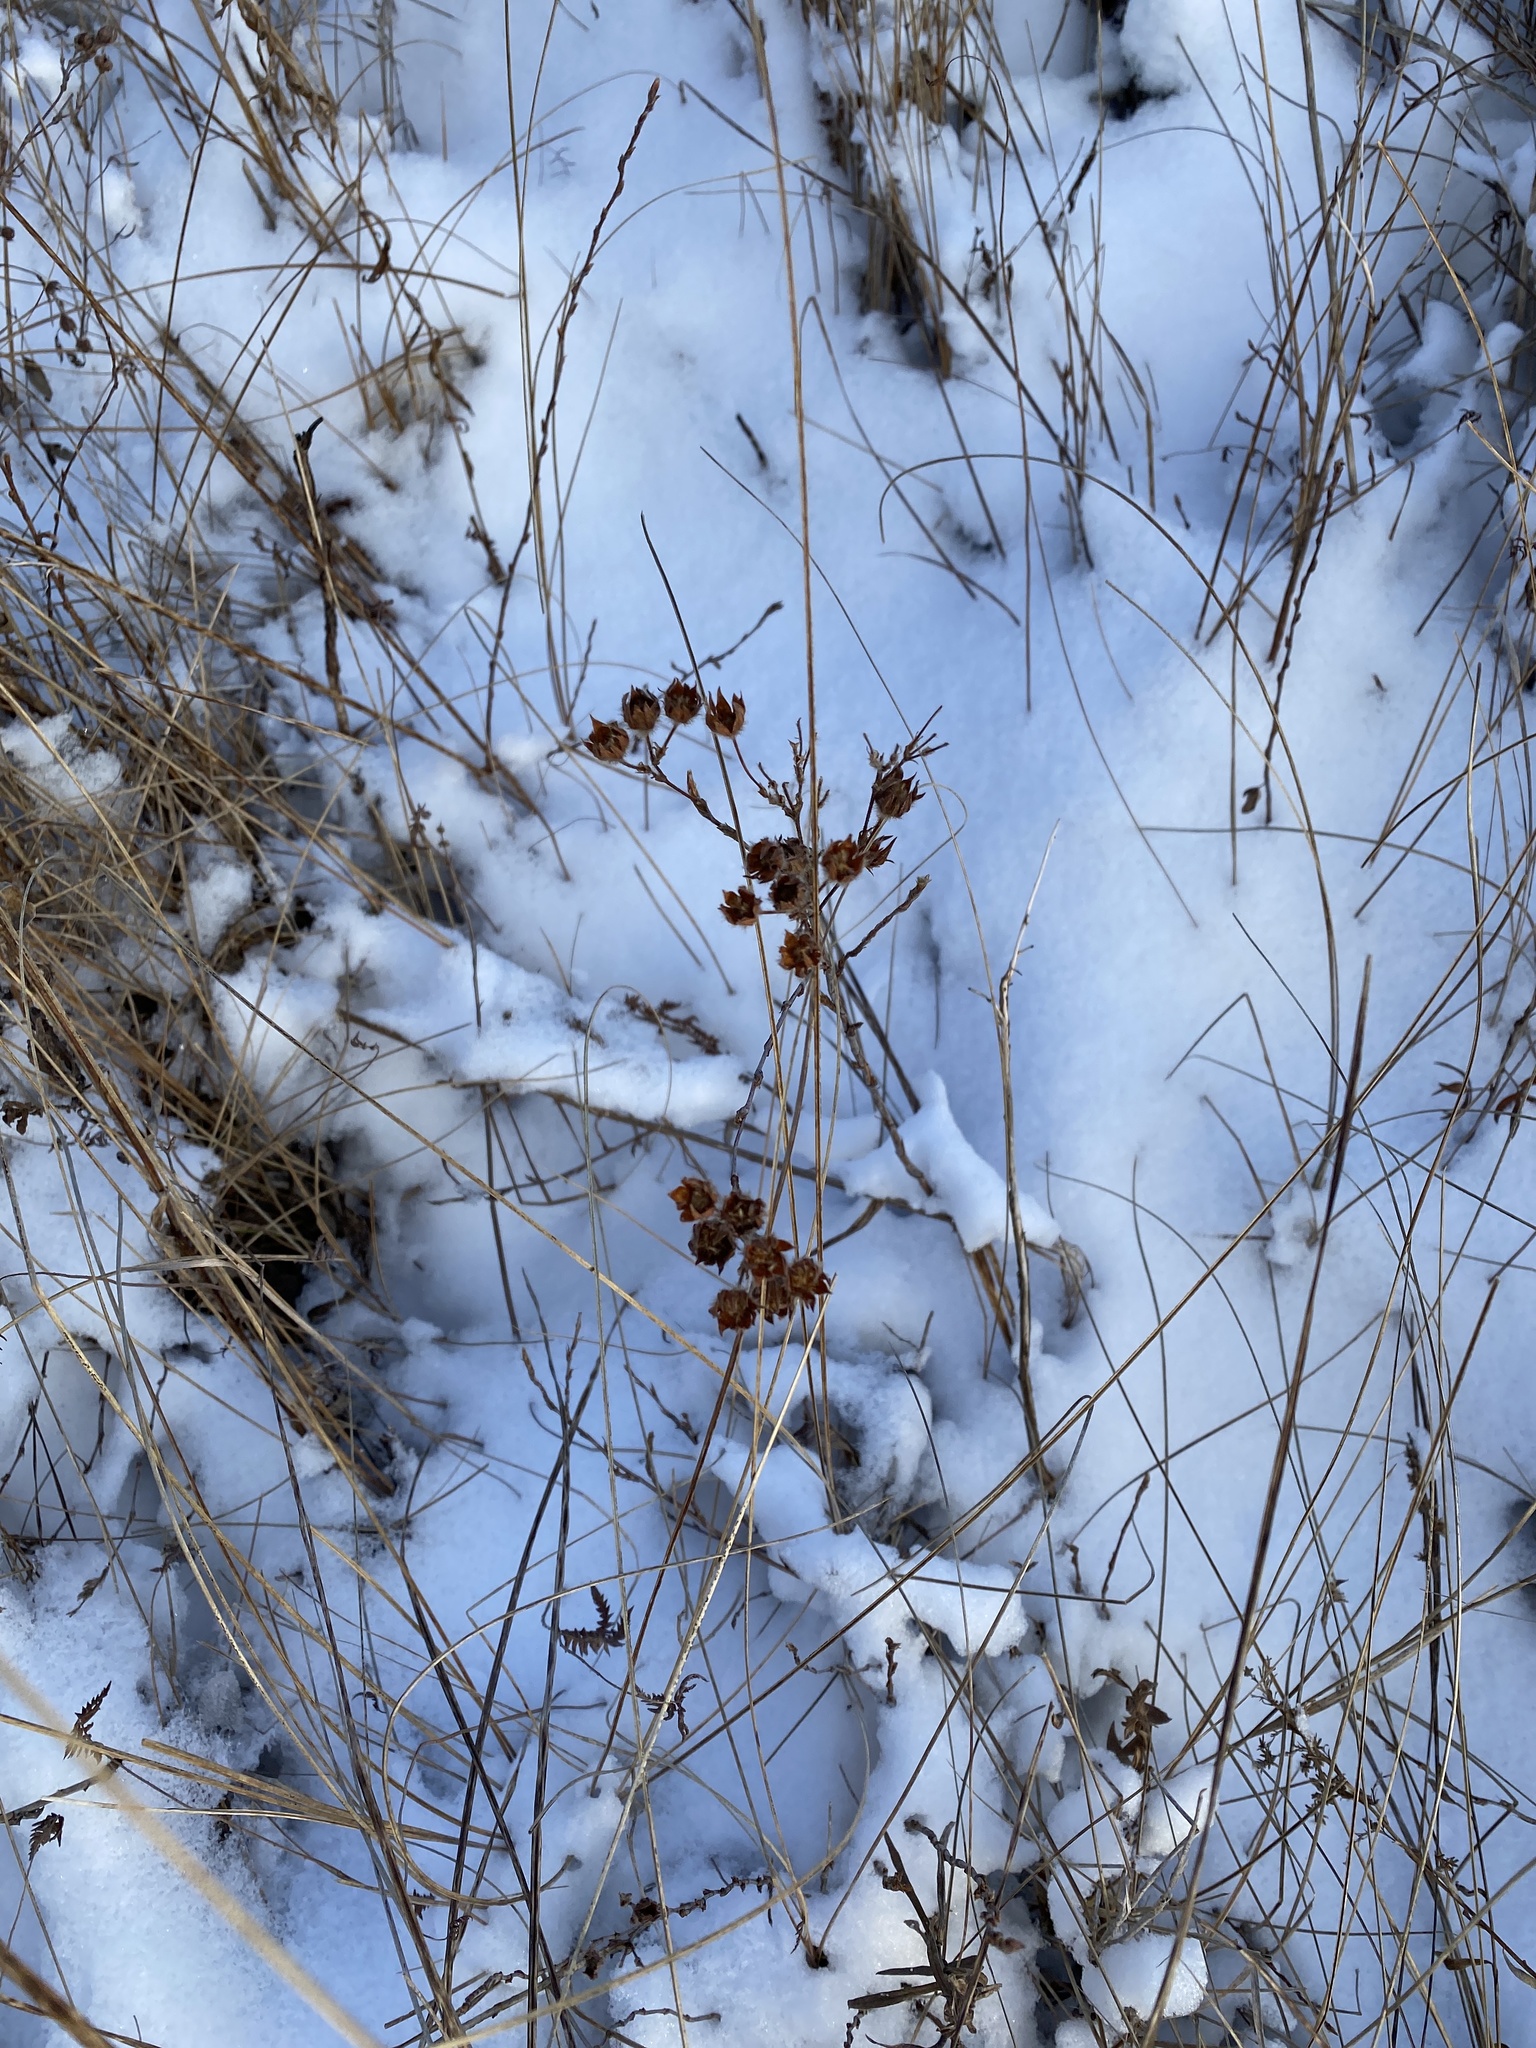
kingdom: Plantae
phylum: Tracheophyta
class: Magnoliopsida
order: Rosales
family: Rosaceae
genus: Dasiphora
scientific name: Dasiphora fruticosa
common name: Shrubby cinquefoil
